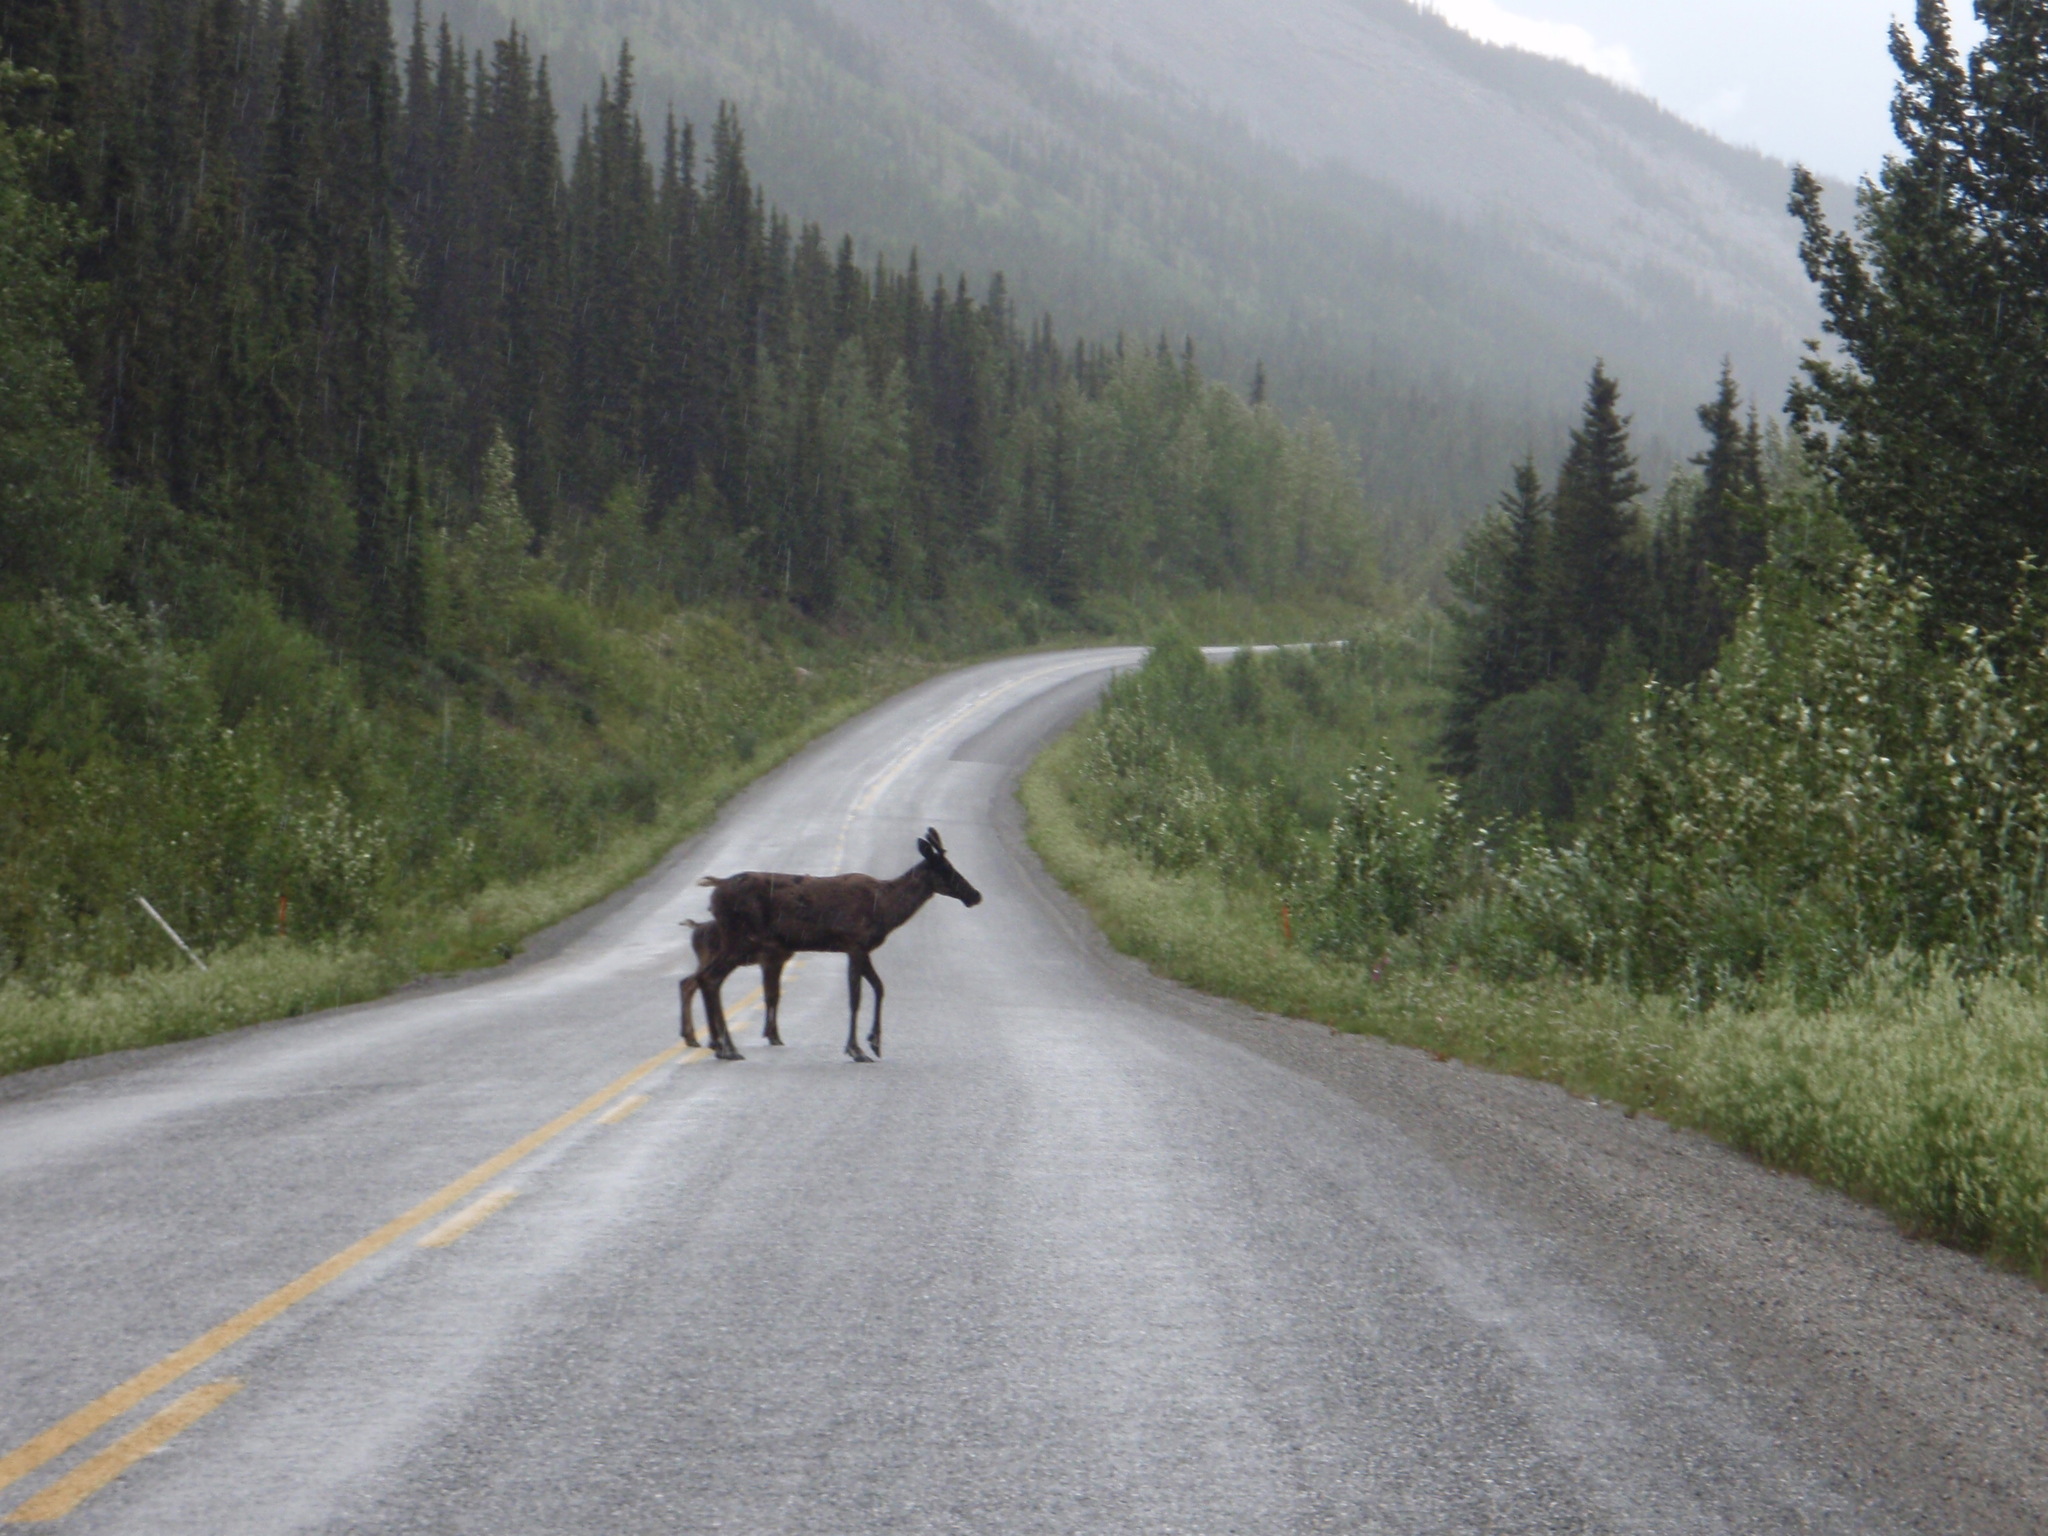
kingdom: Animalia
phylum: Chordata
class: Mammalia
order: Artiodactyla
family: Cervidae
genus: Rangifer
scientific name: Rangifer tarandus
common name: Reindeer
